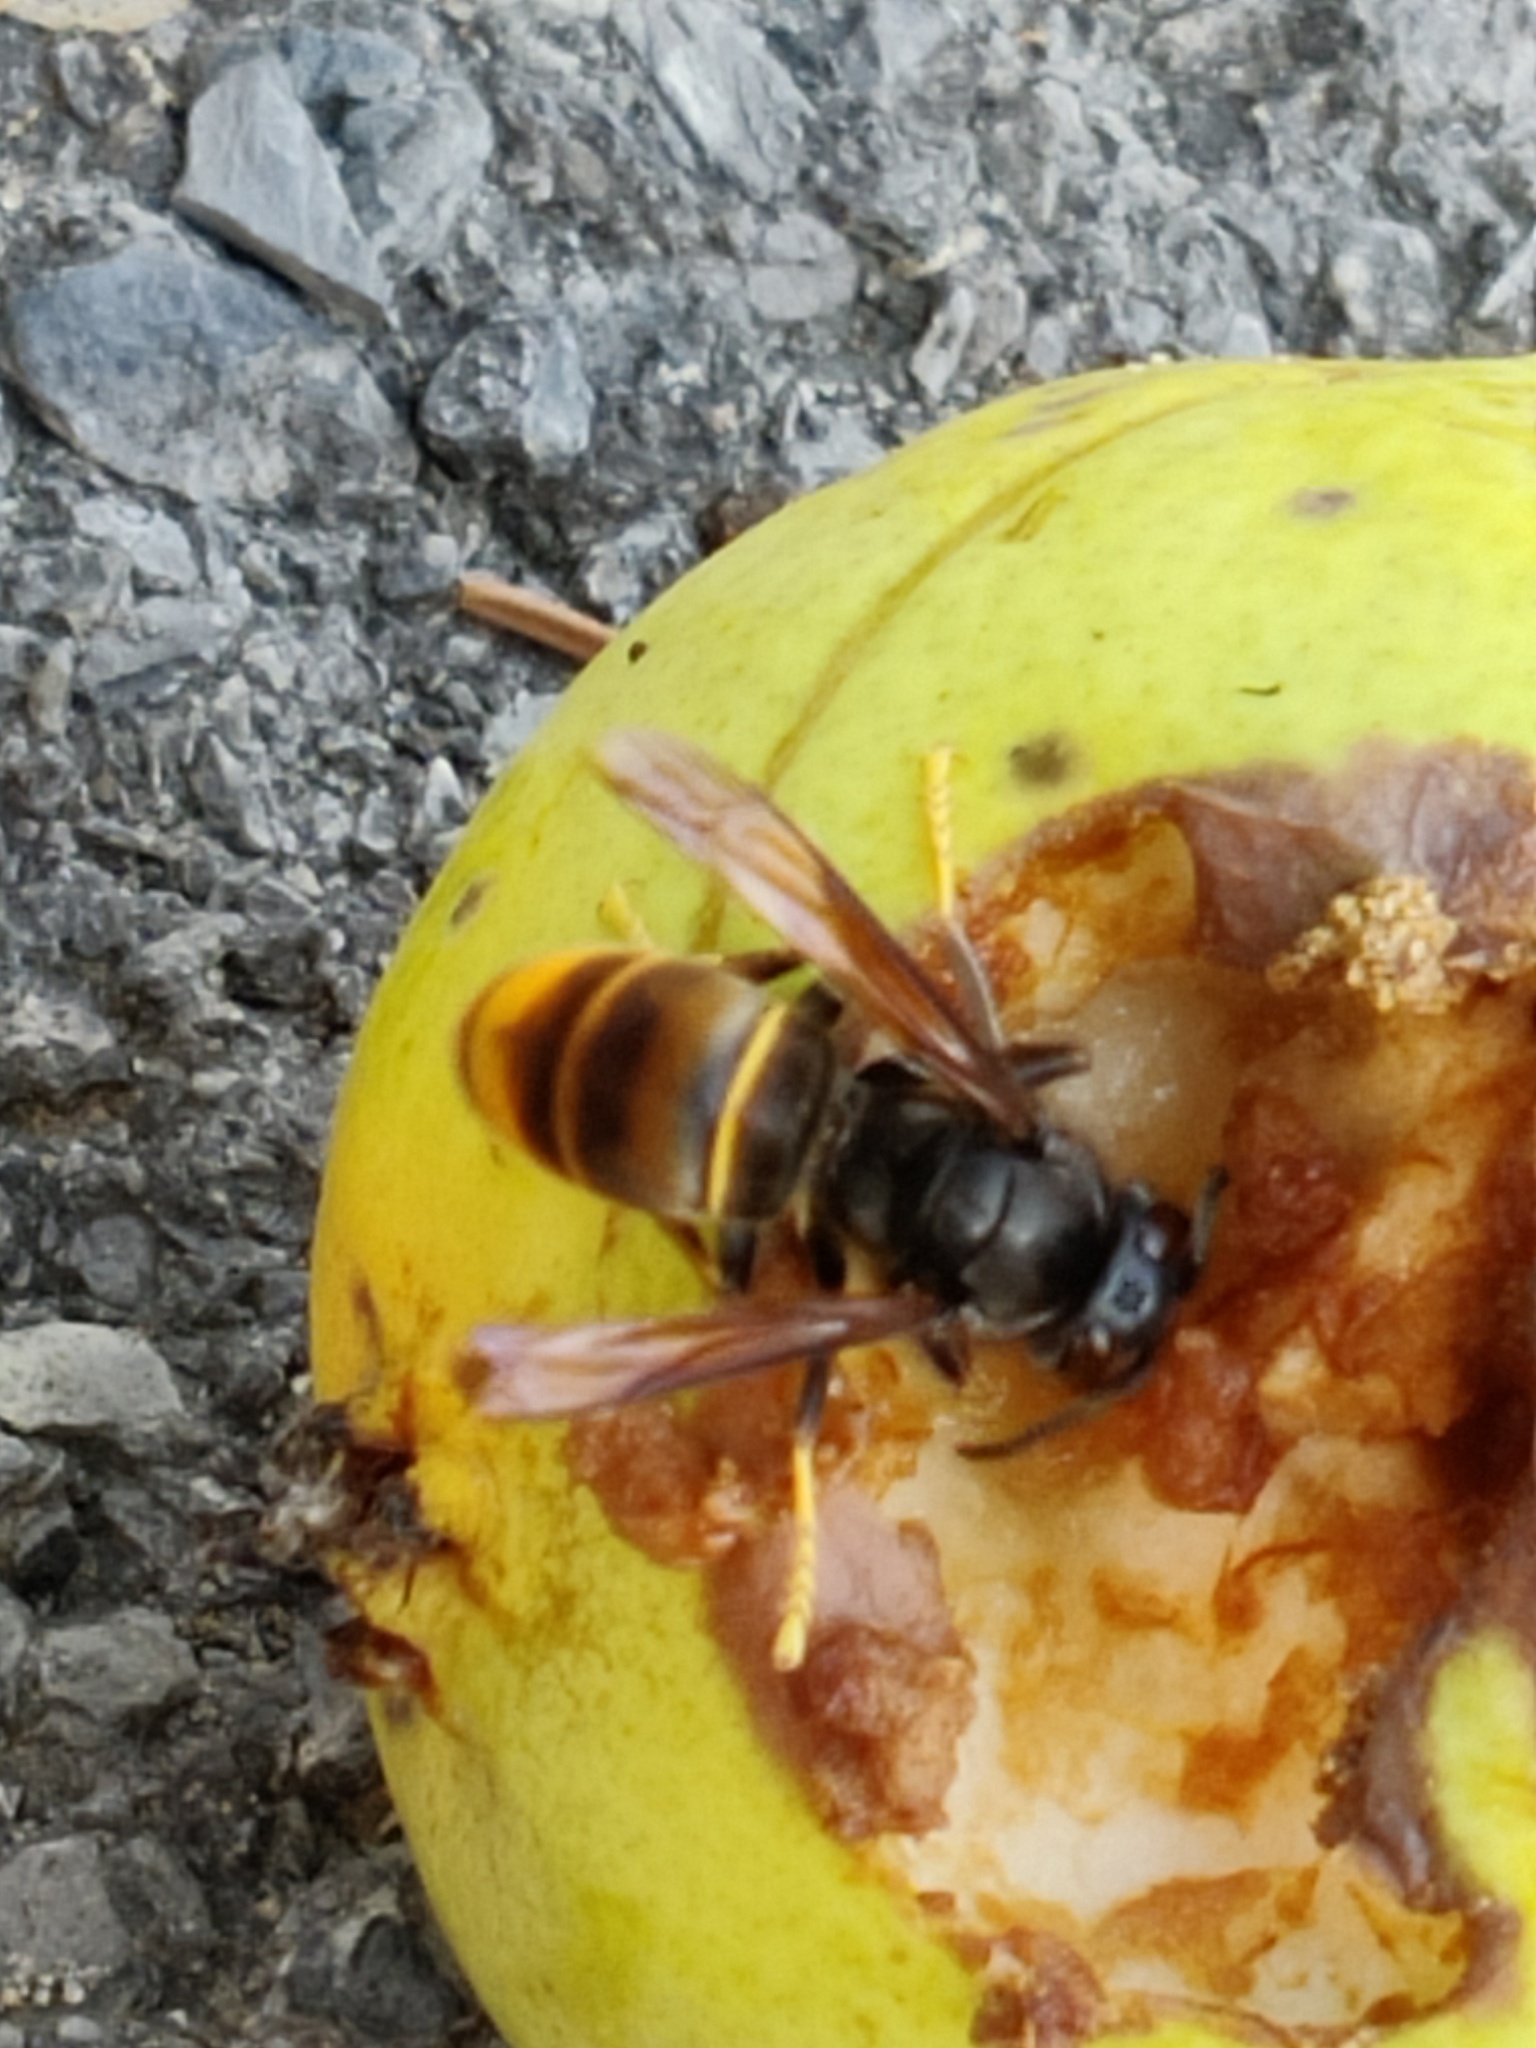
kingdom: Animalia
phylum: Arthropoda
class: Insecta
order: Hymenoptera
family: Vespidae
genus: Vespa
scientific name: Vespa velutina
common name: Asian hornet
